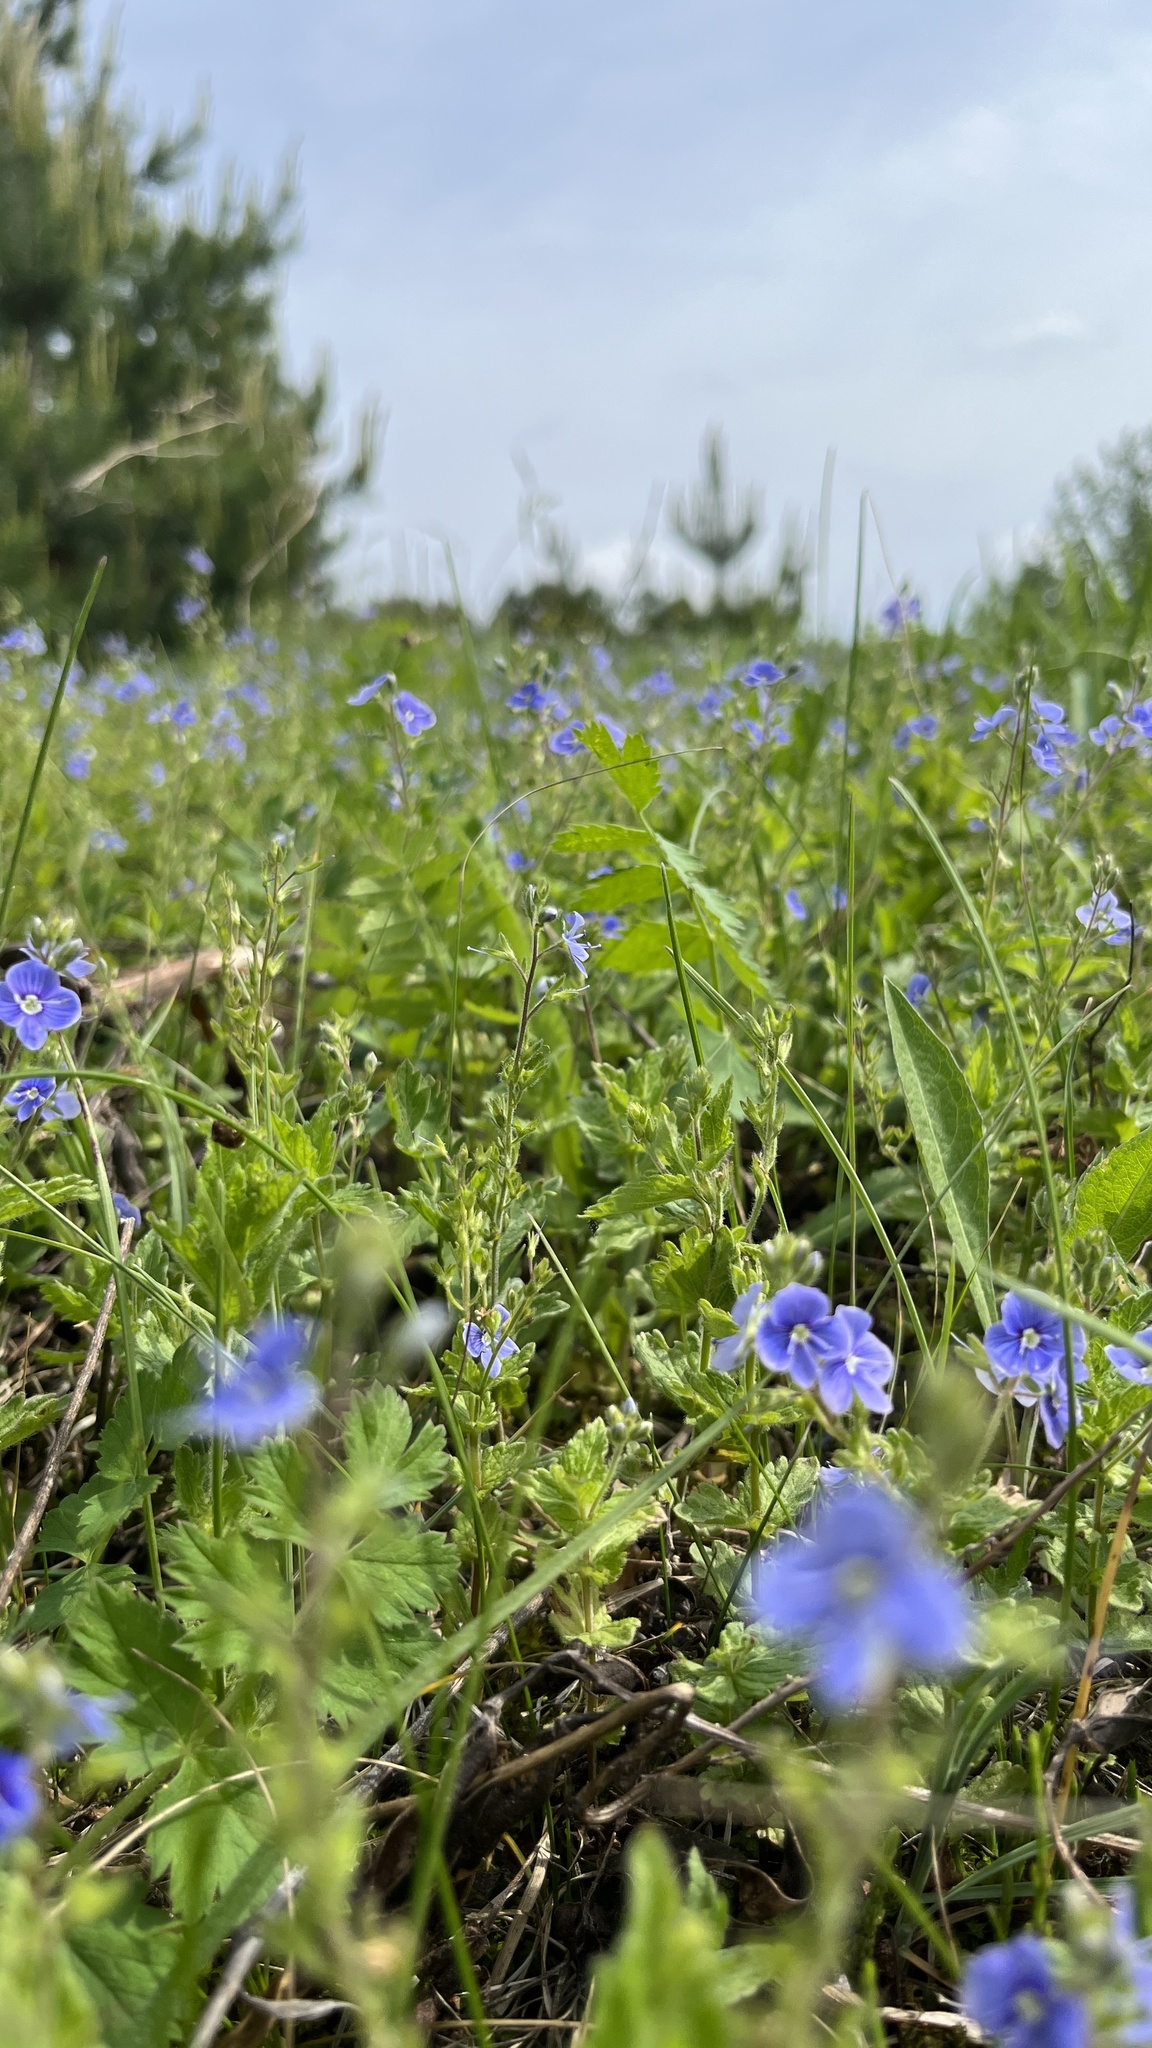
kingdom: Plantae
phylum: Tracheophyta
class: Magnoliopsida
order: Lamiales
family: Plantaginaceae
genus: Veronica
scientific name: Veronica chamaedrys
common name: Germander speedwell
